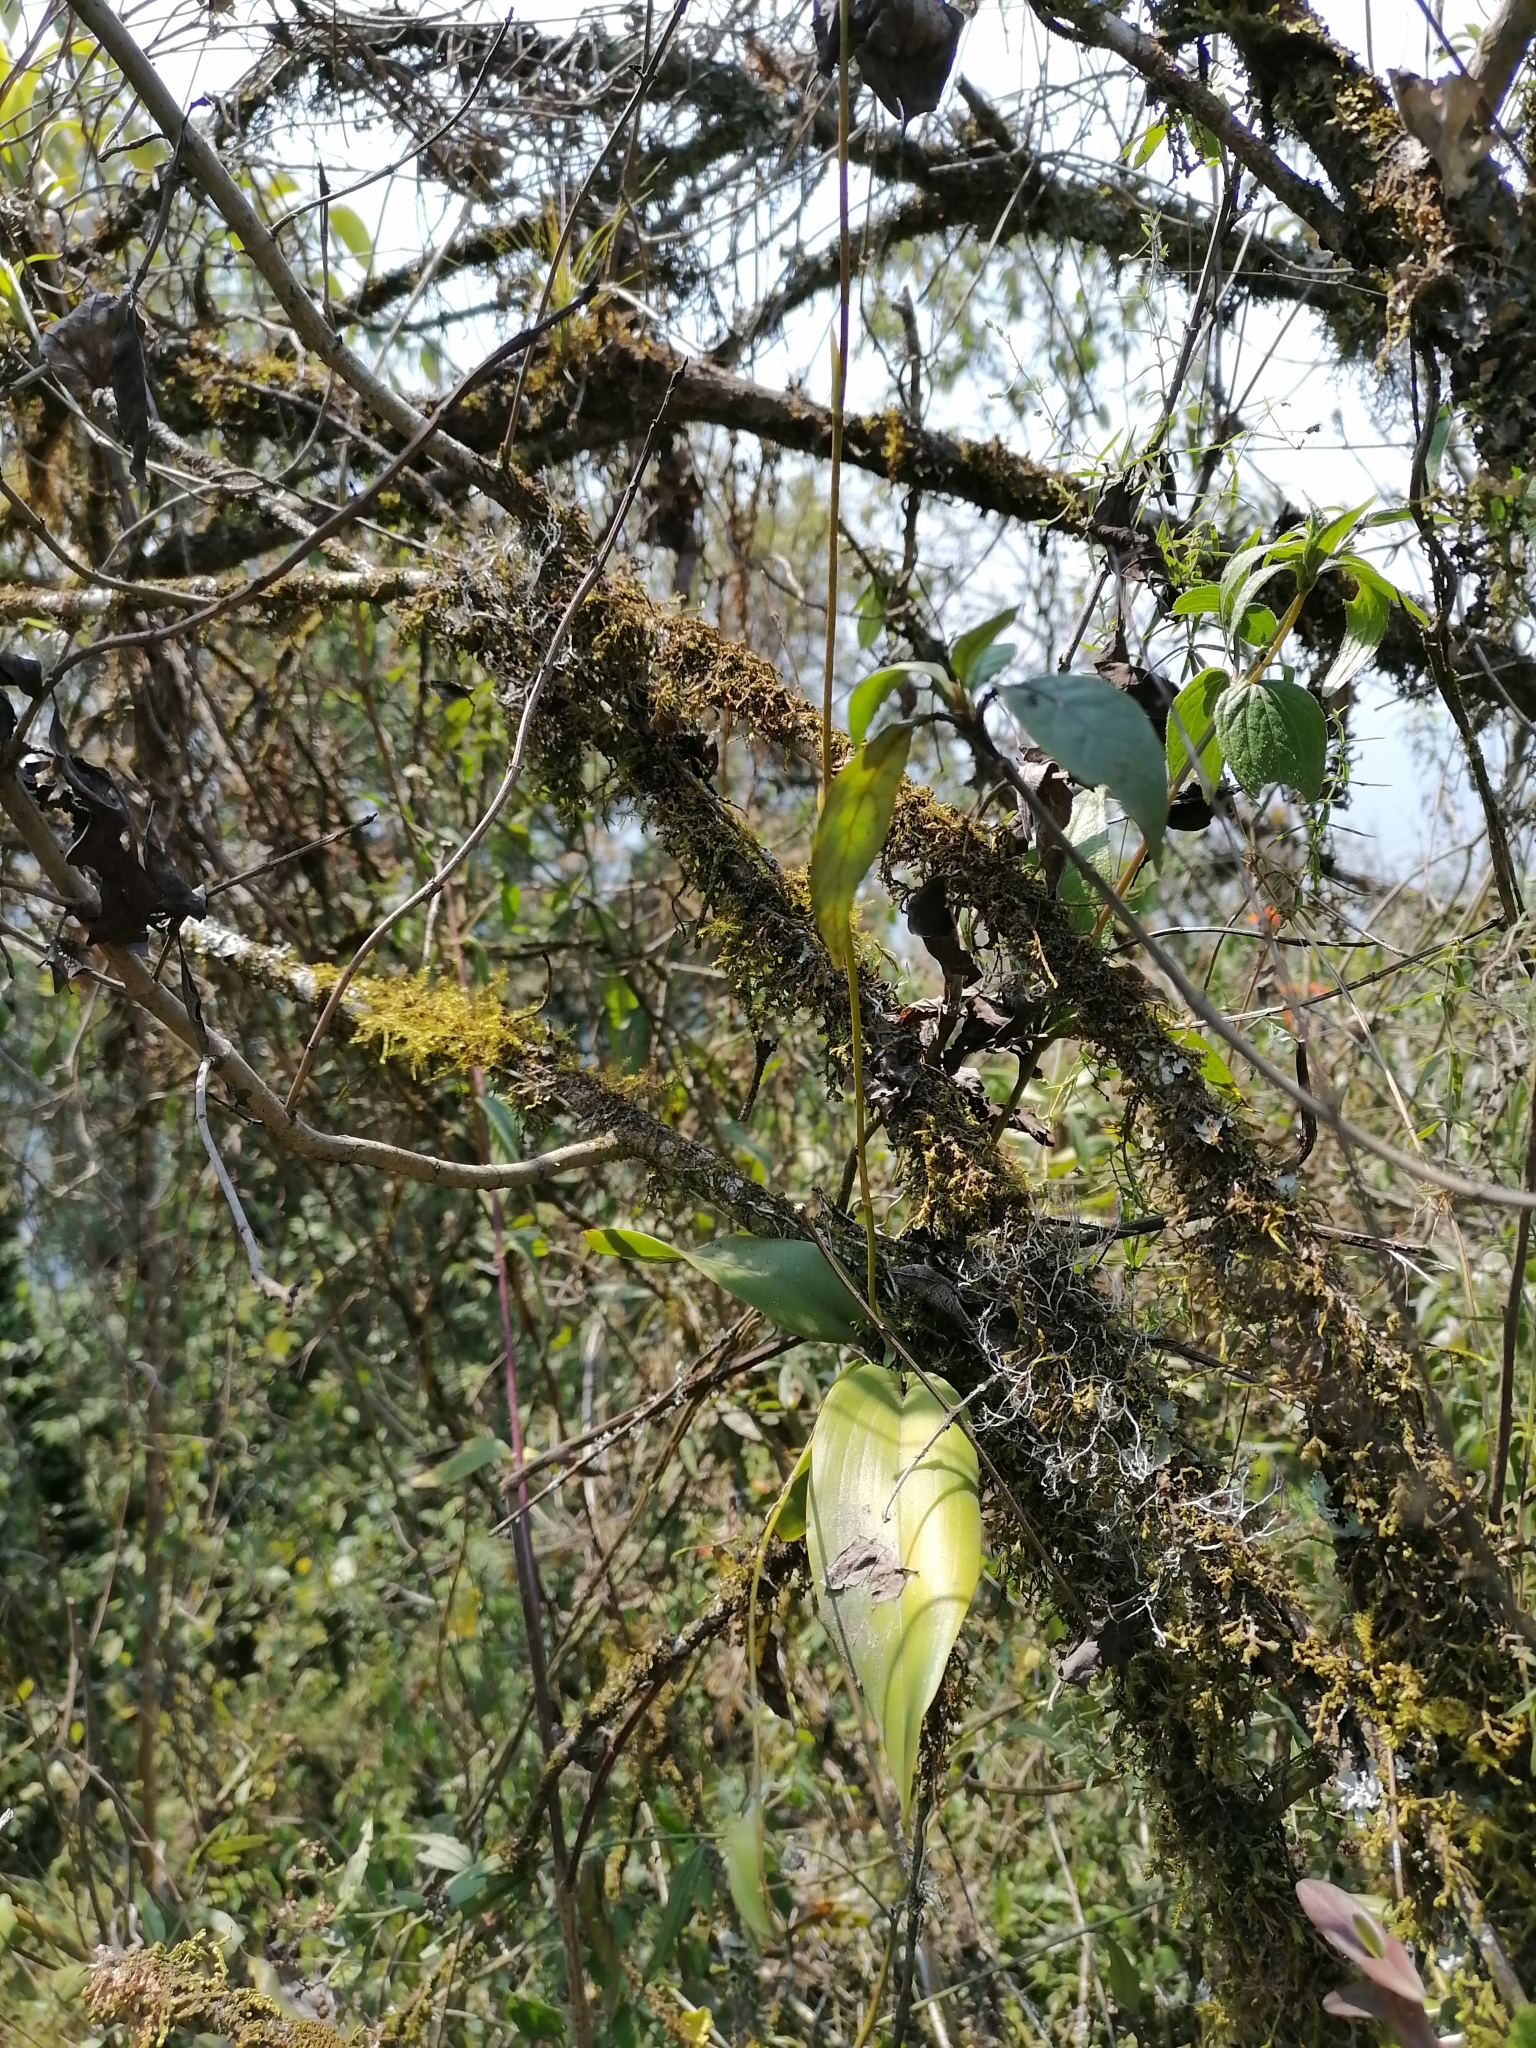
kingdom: Plantae
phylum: Tracheophyta
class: Liliopsida
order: Asparagales
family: Orchidaceae
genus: Leochilus
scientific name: Leochilus carinatus
